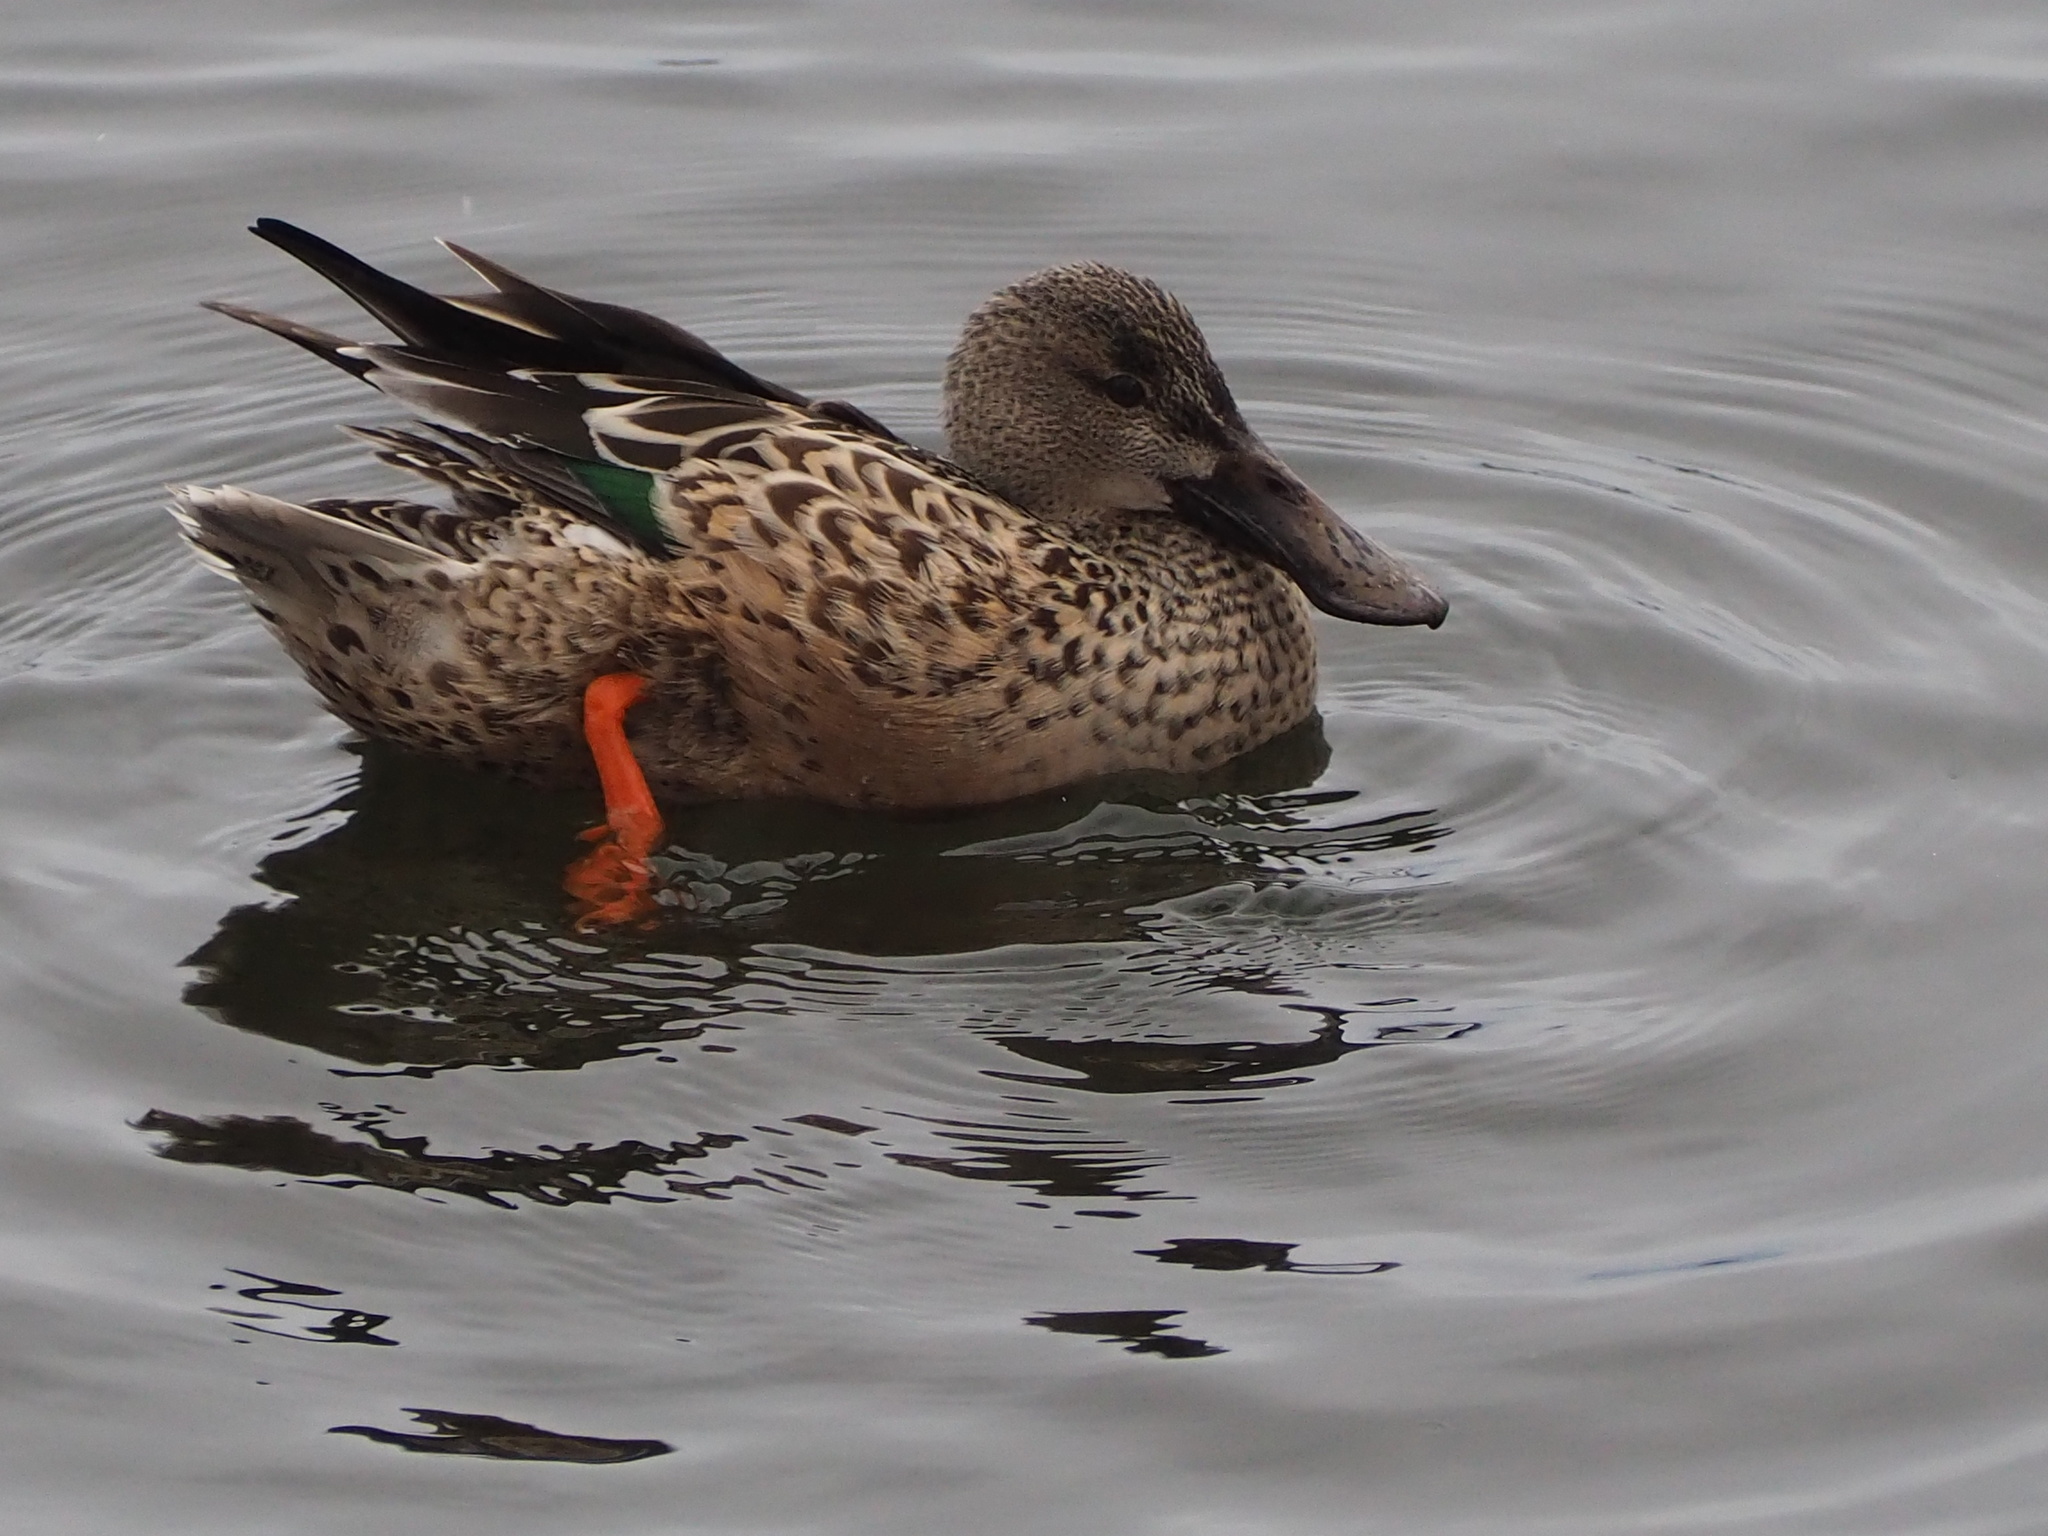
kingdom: Animalia
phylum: Chordata
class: Aves
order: Anseriformes
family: Anatidae
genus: Spatula
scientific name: Spatula clypeata
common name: Northern shoveler
